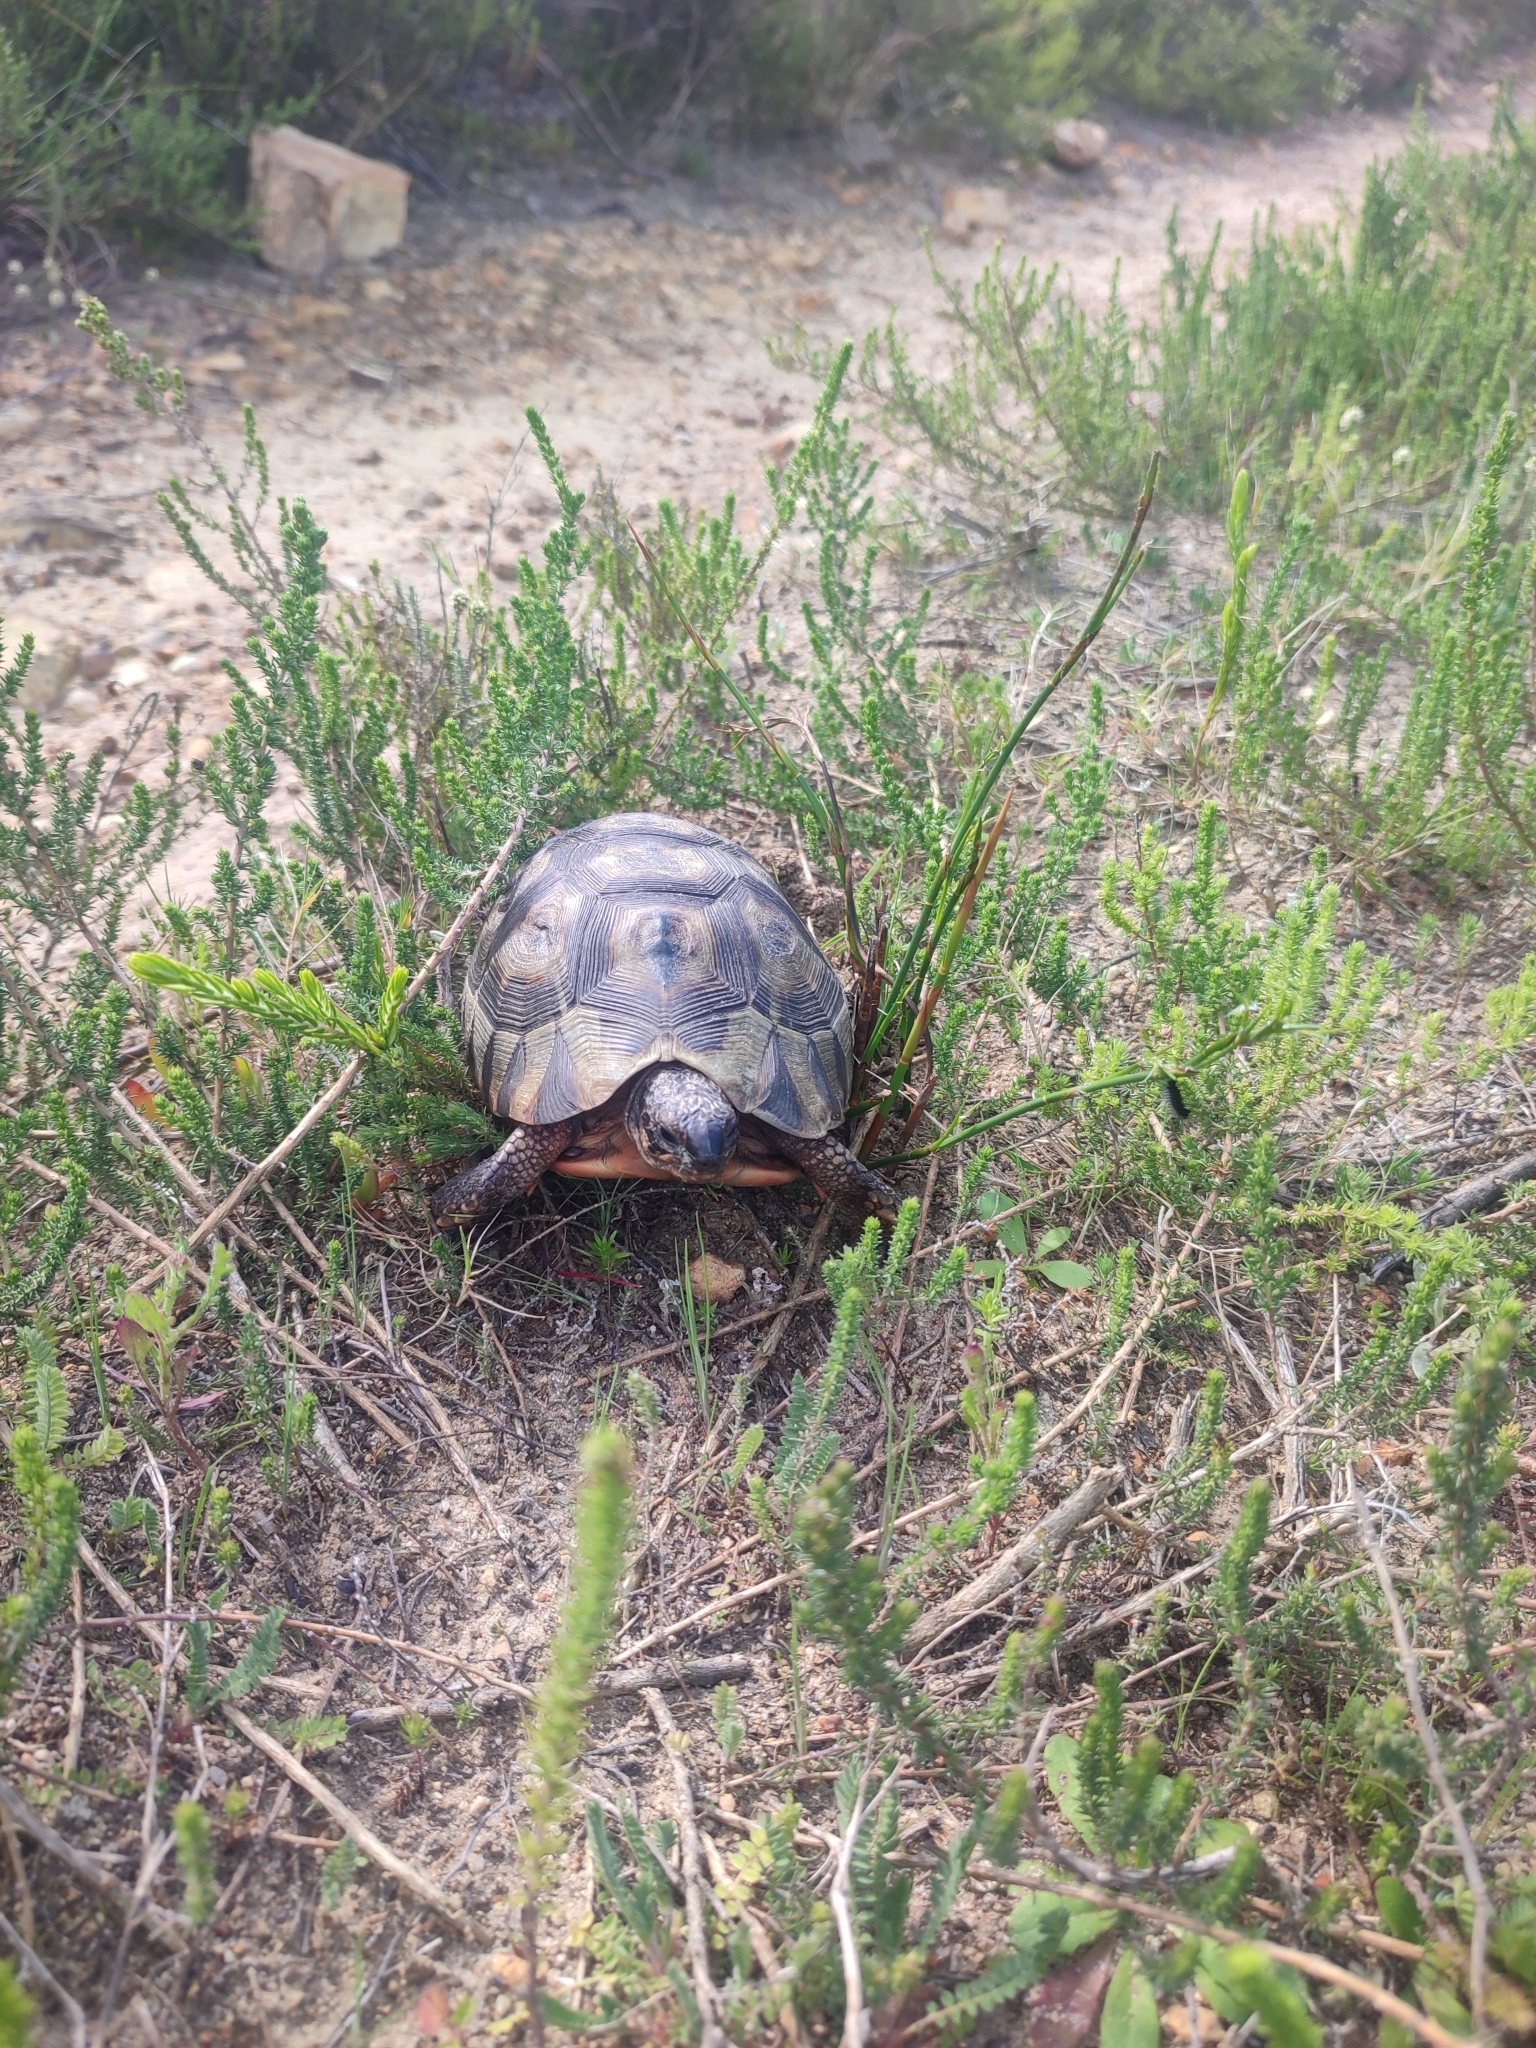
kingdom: Animalia
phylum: Chordata
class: Testudines
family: Testudinidae
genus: Chersina
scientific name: Chersina angulata
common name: South african bowsprit tortoise
